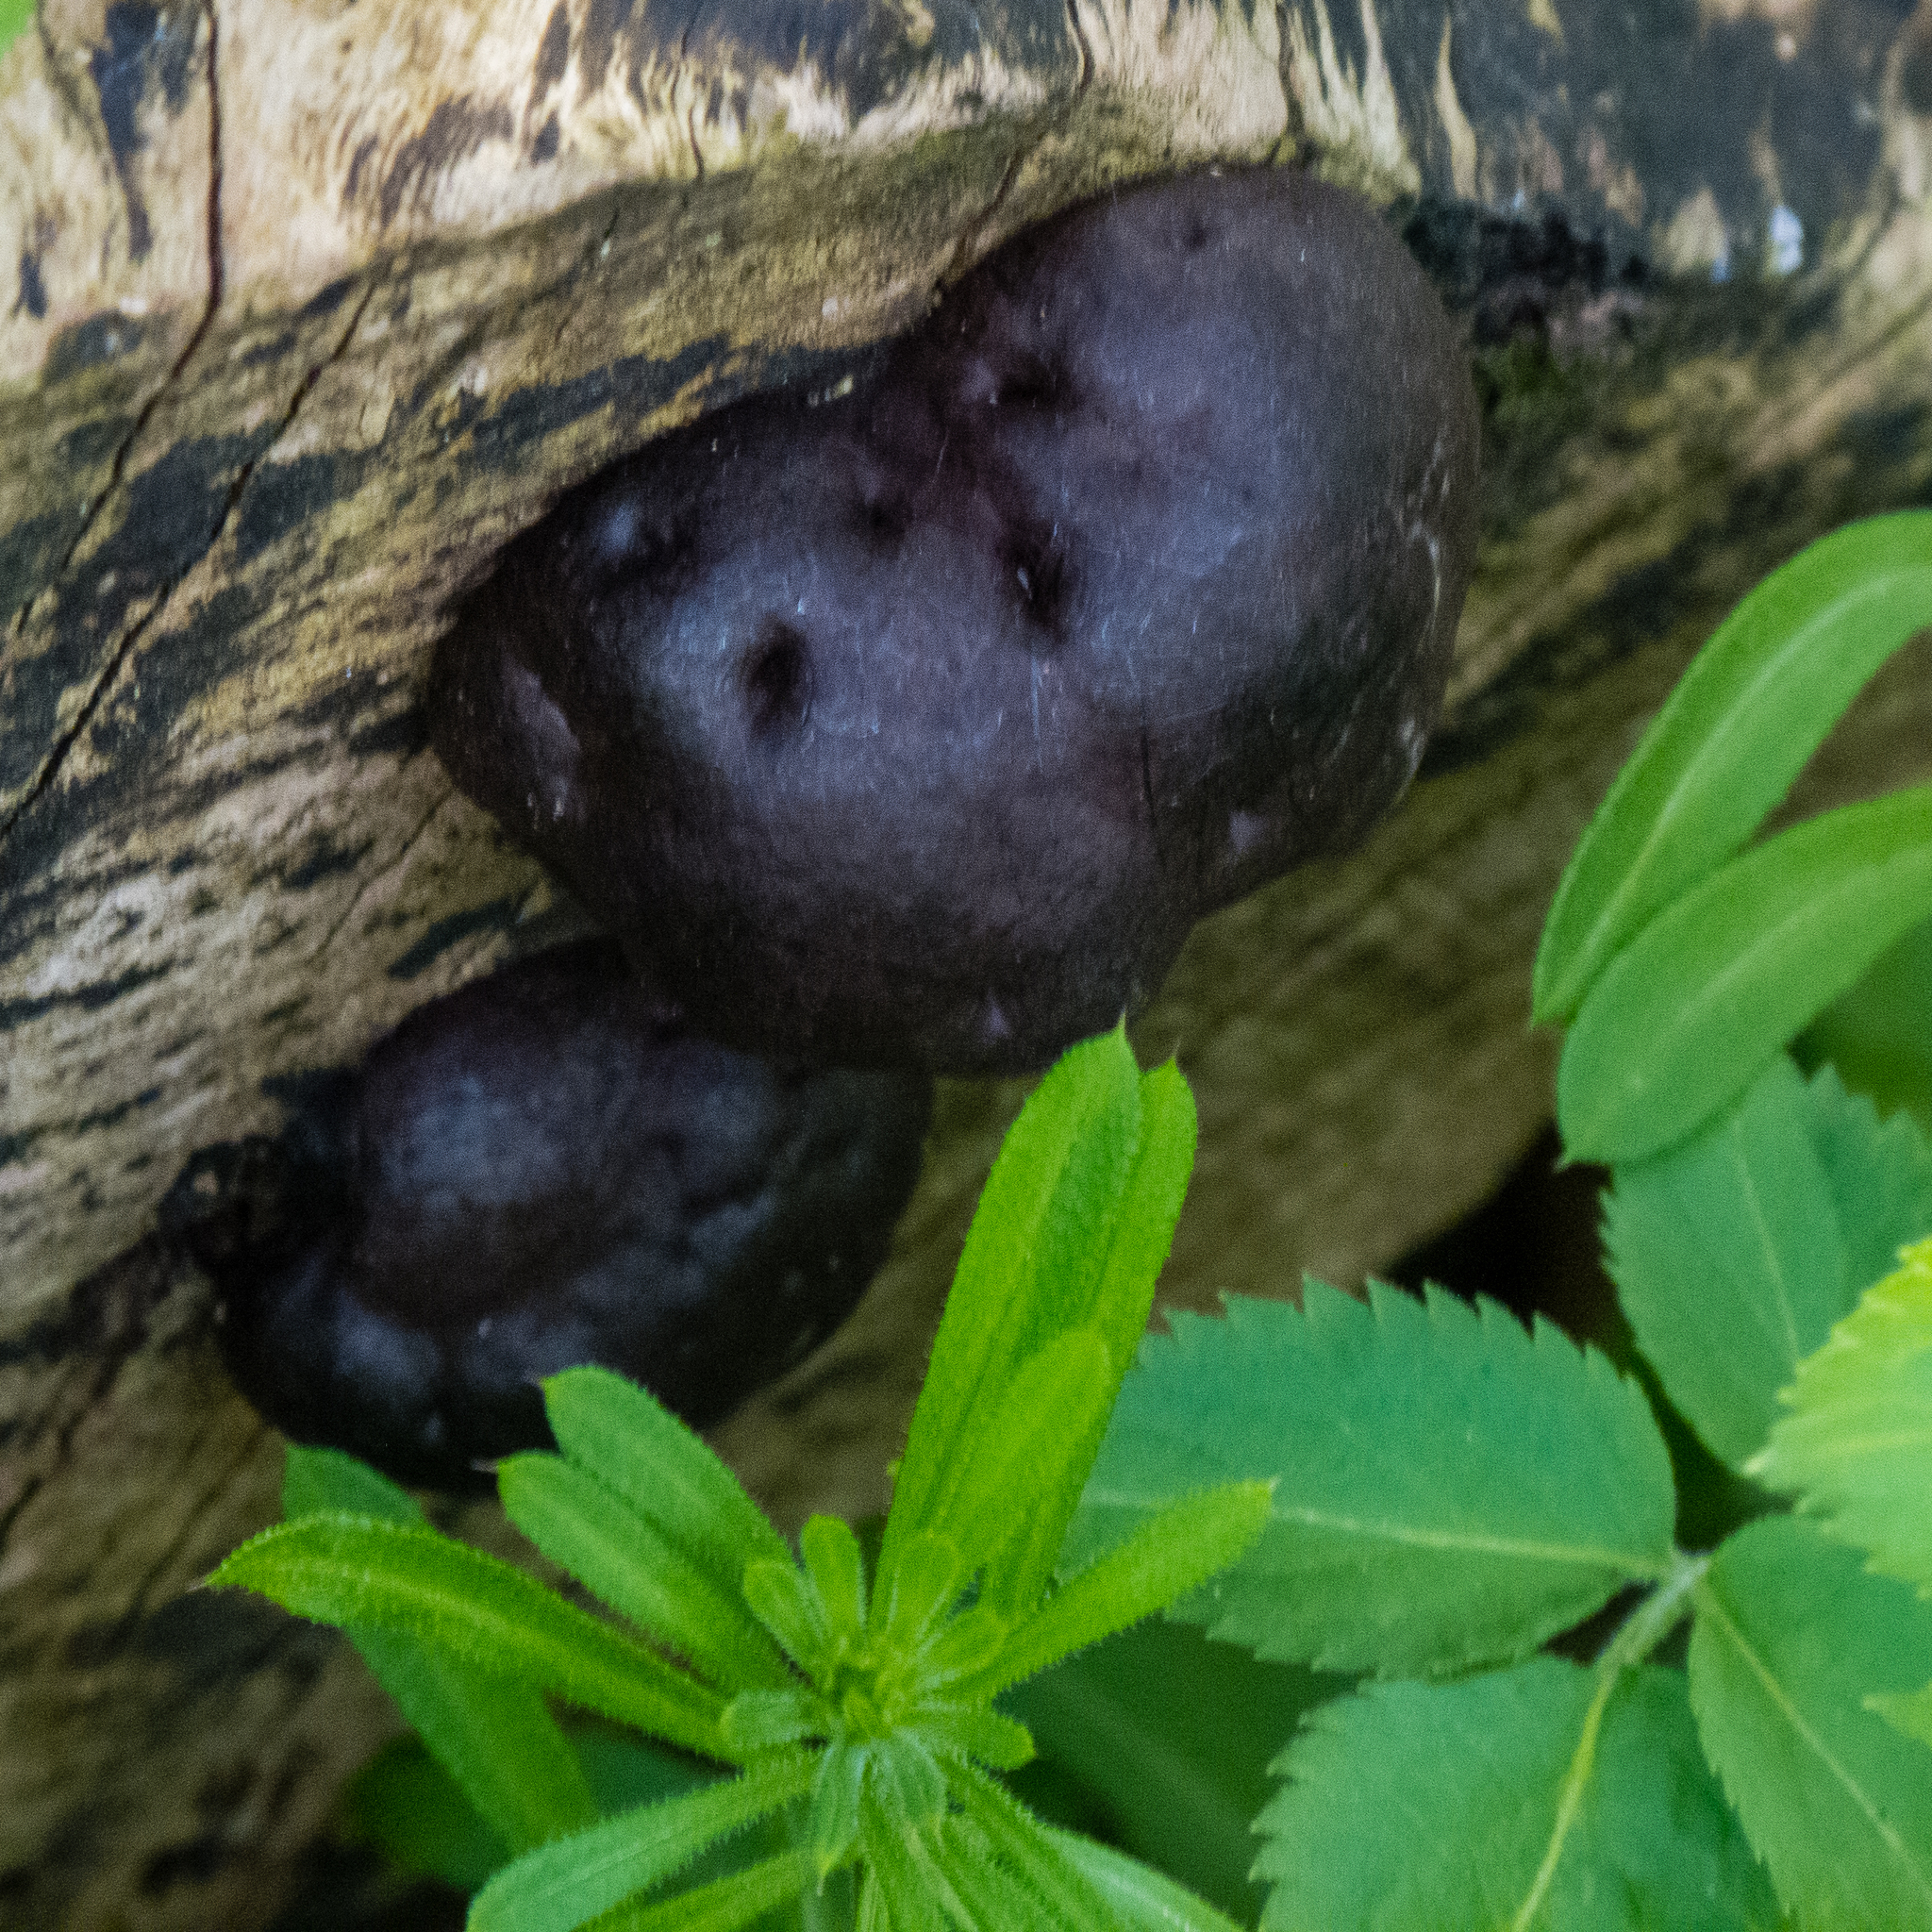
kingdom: Fungi
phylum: Ascomycota
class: Sordariomycetes
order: Xylariales
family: Hypoxylaceae
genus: Daldinia
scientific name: Daldinia concentrica
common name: Cramp balls
